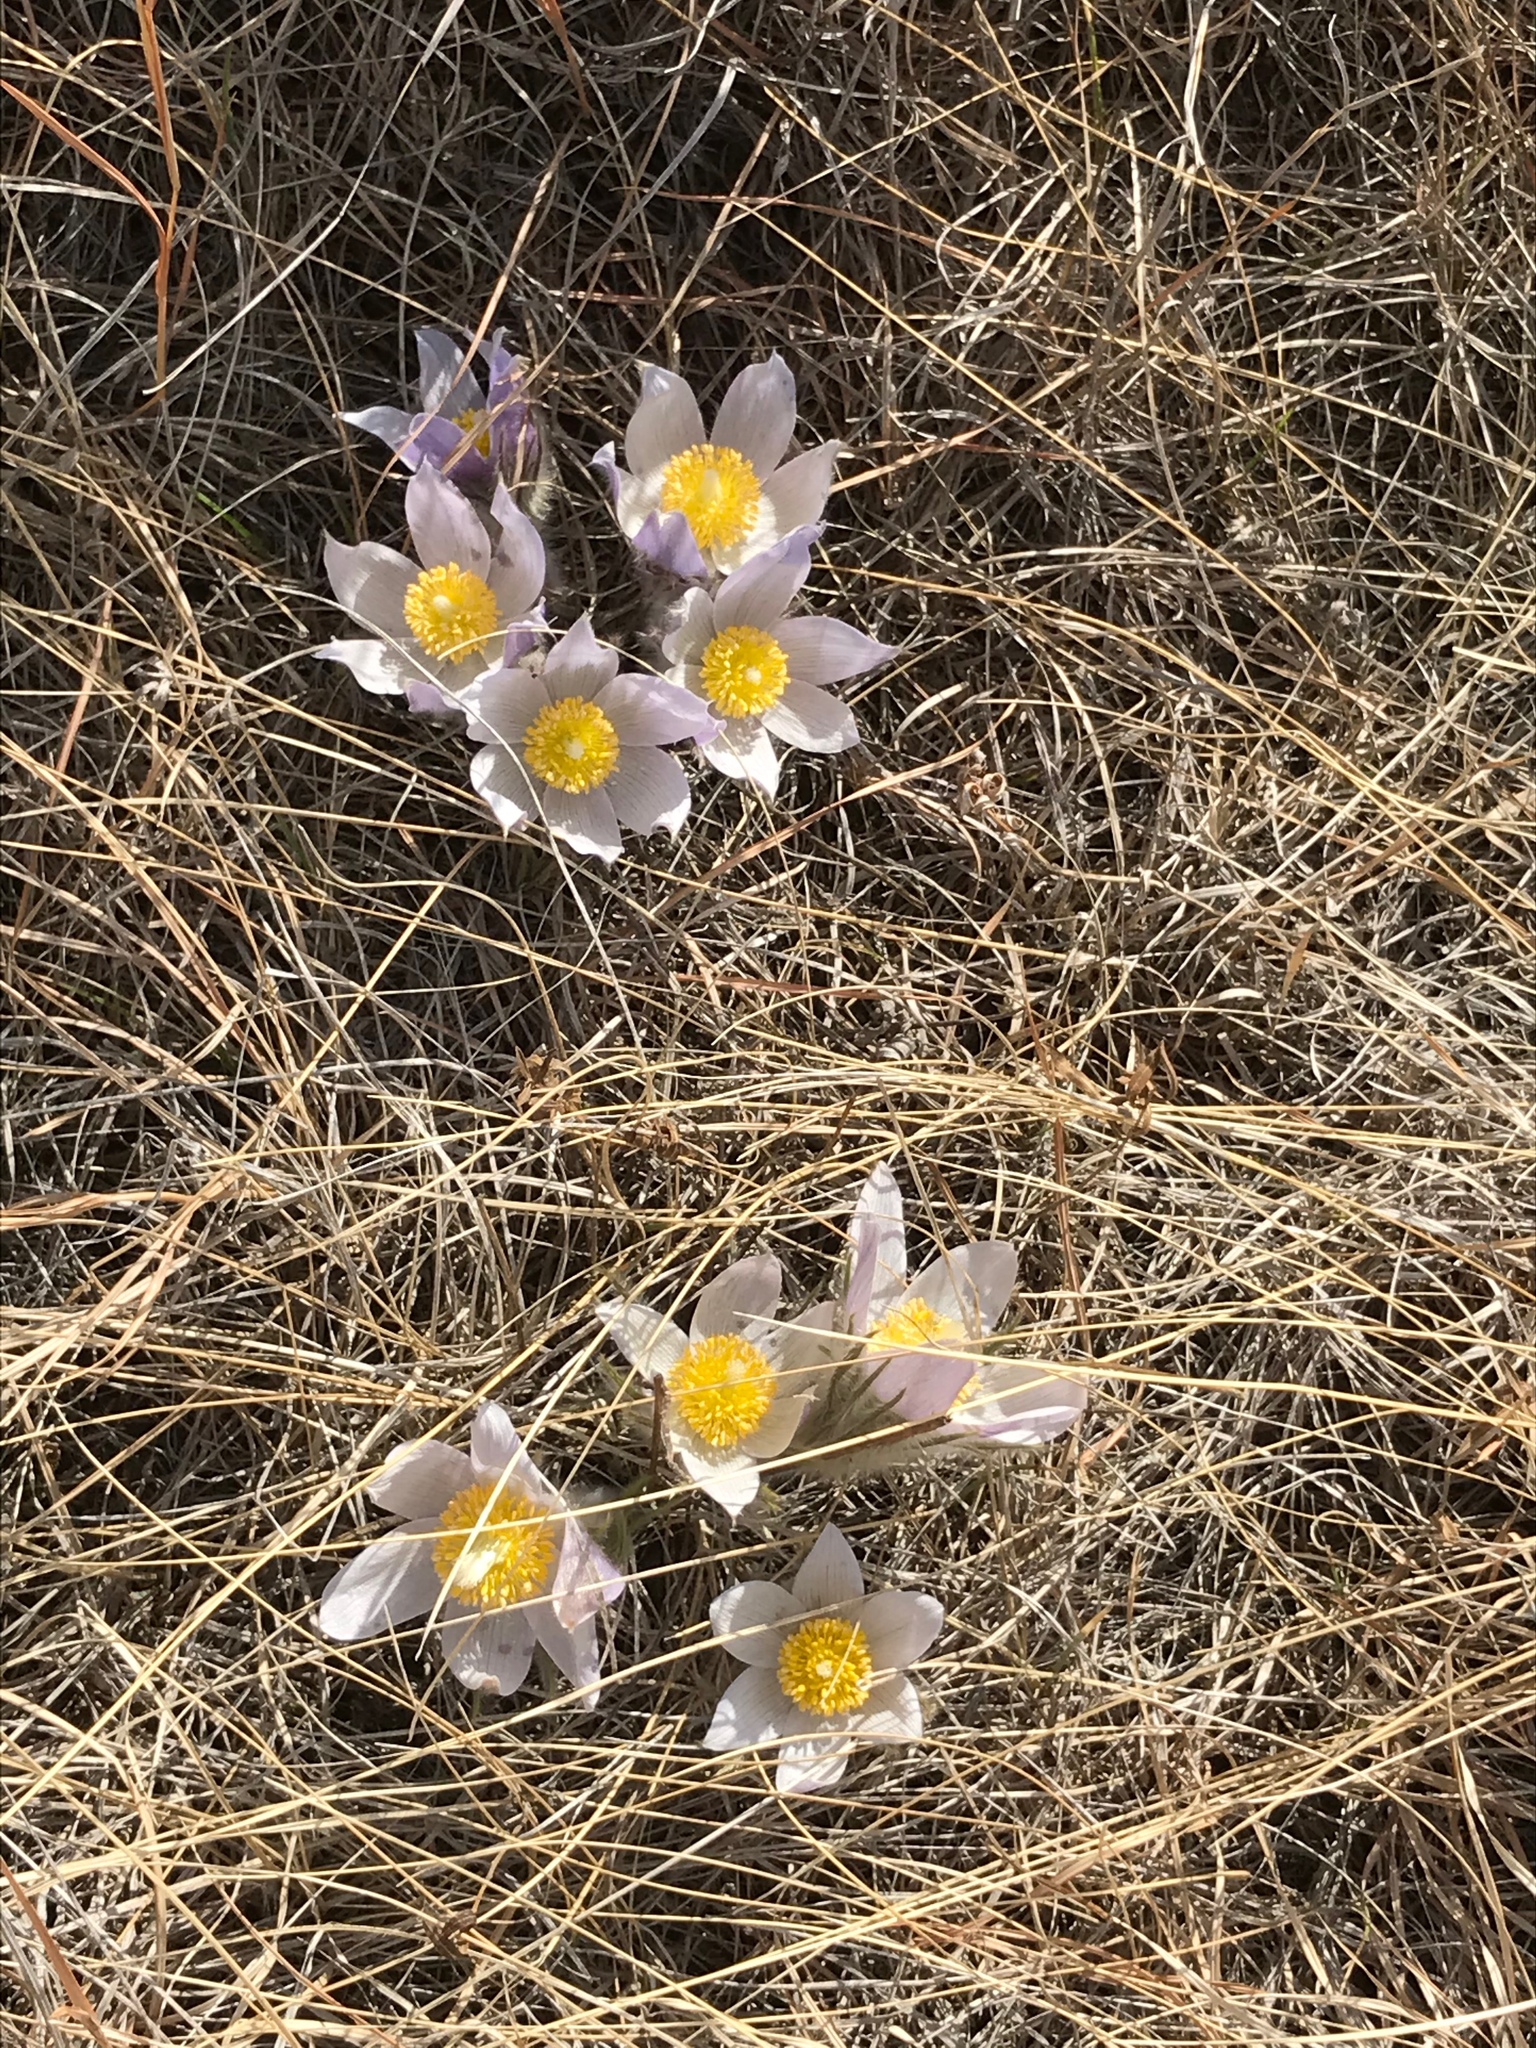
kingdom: Plantae
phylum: Tracheophyta
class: Magnoliopsida
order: Ranunculales
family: Ranunculaceae
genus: Pulsatilla
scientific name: Pulsatilla nuttalliana
